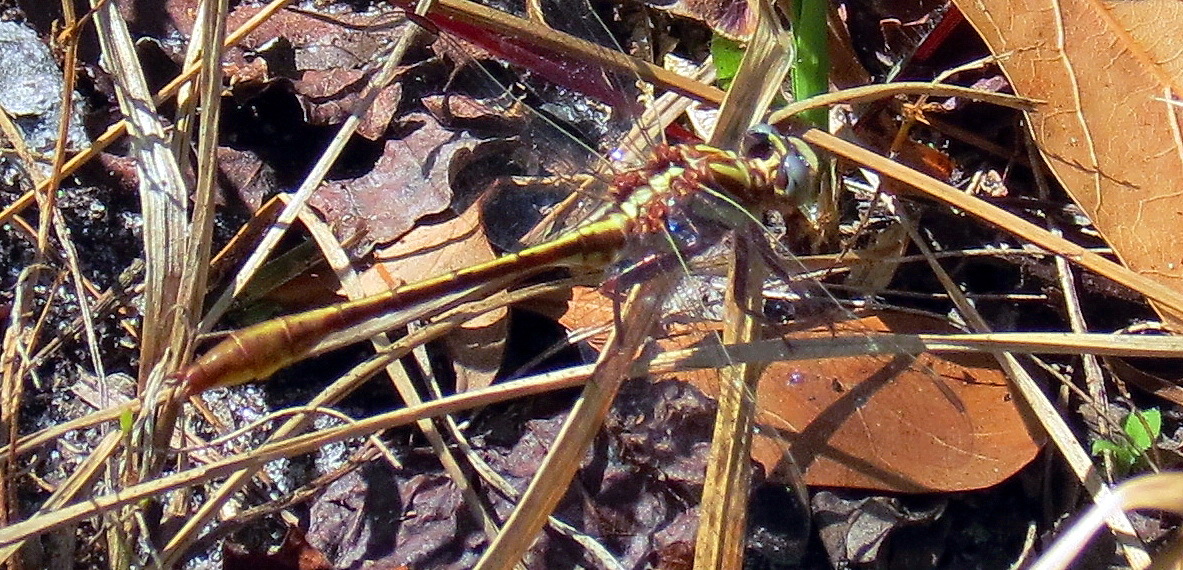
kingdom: Animalia
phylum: Arthropoda
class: Insecta
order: Odonata
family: Gomphidae
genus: Phanogomphus
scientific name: Phanogomphus minutus
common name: Cypress clubtail
